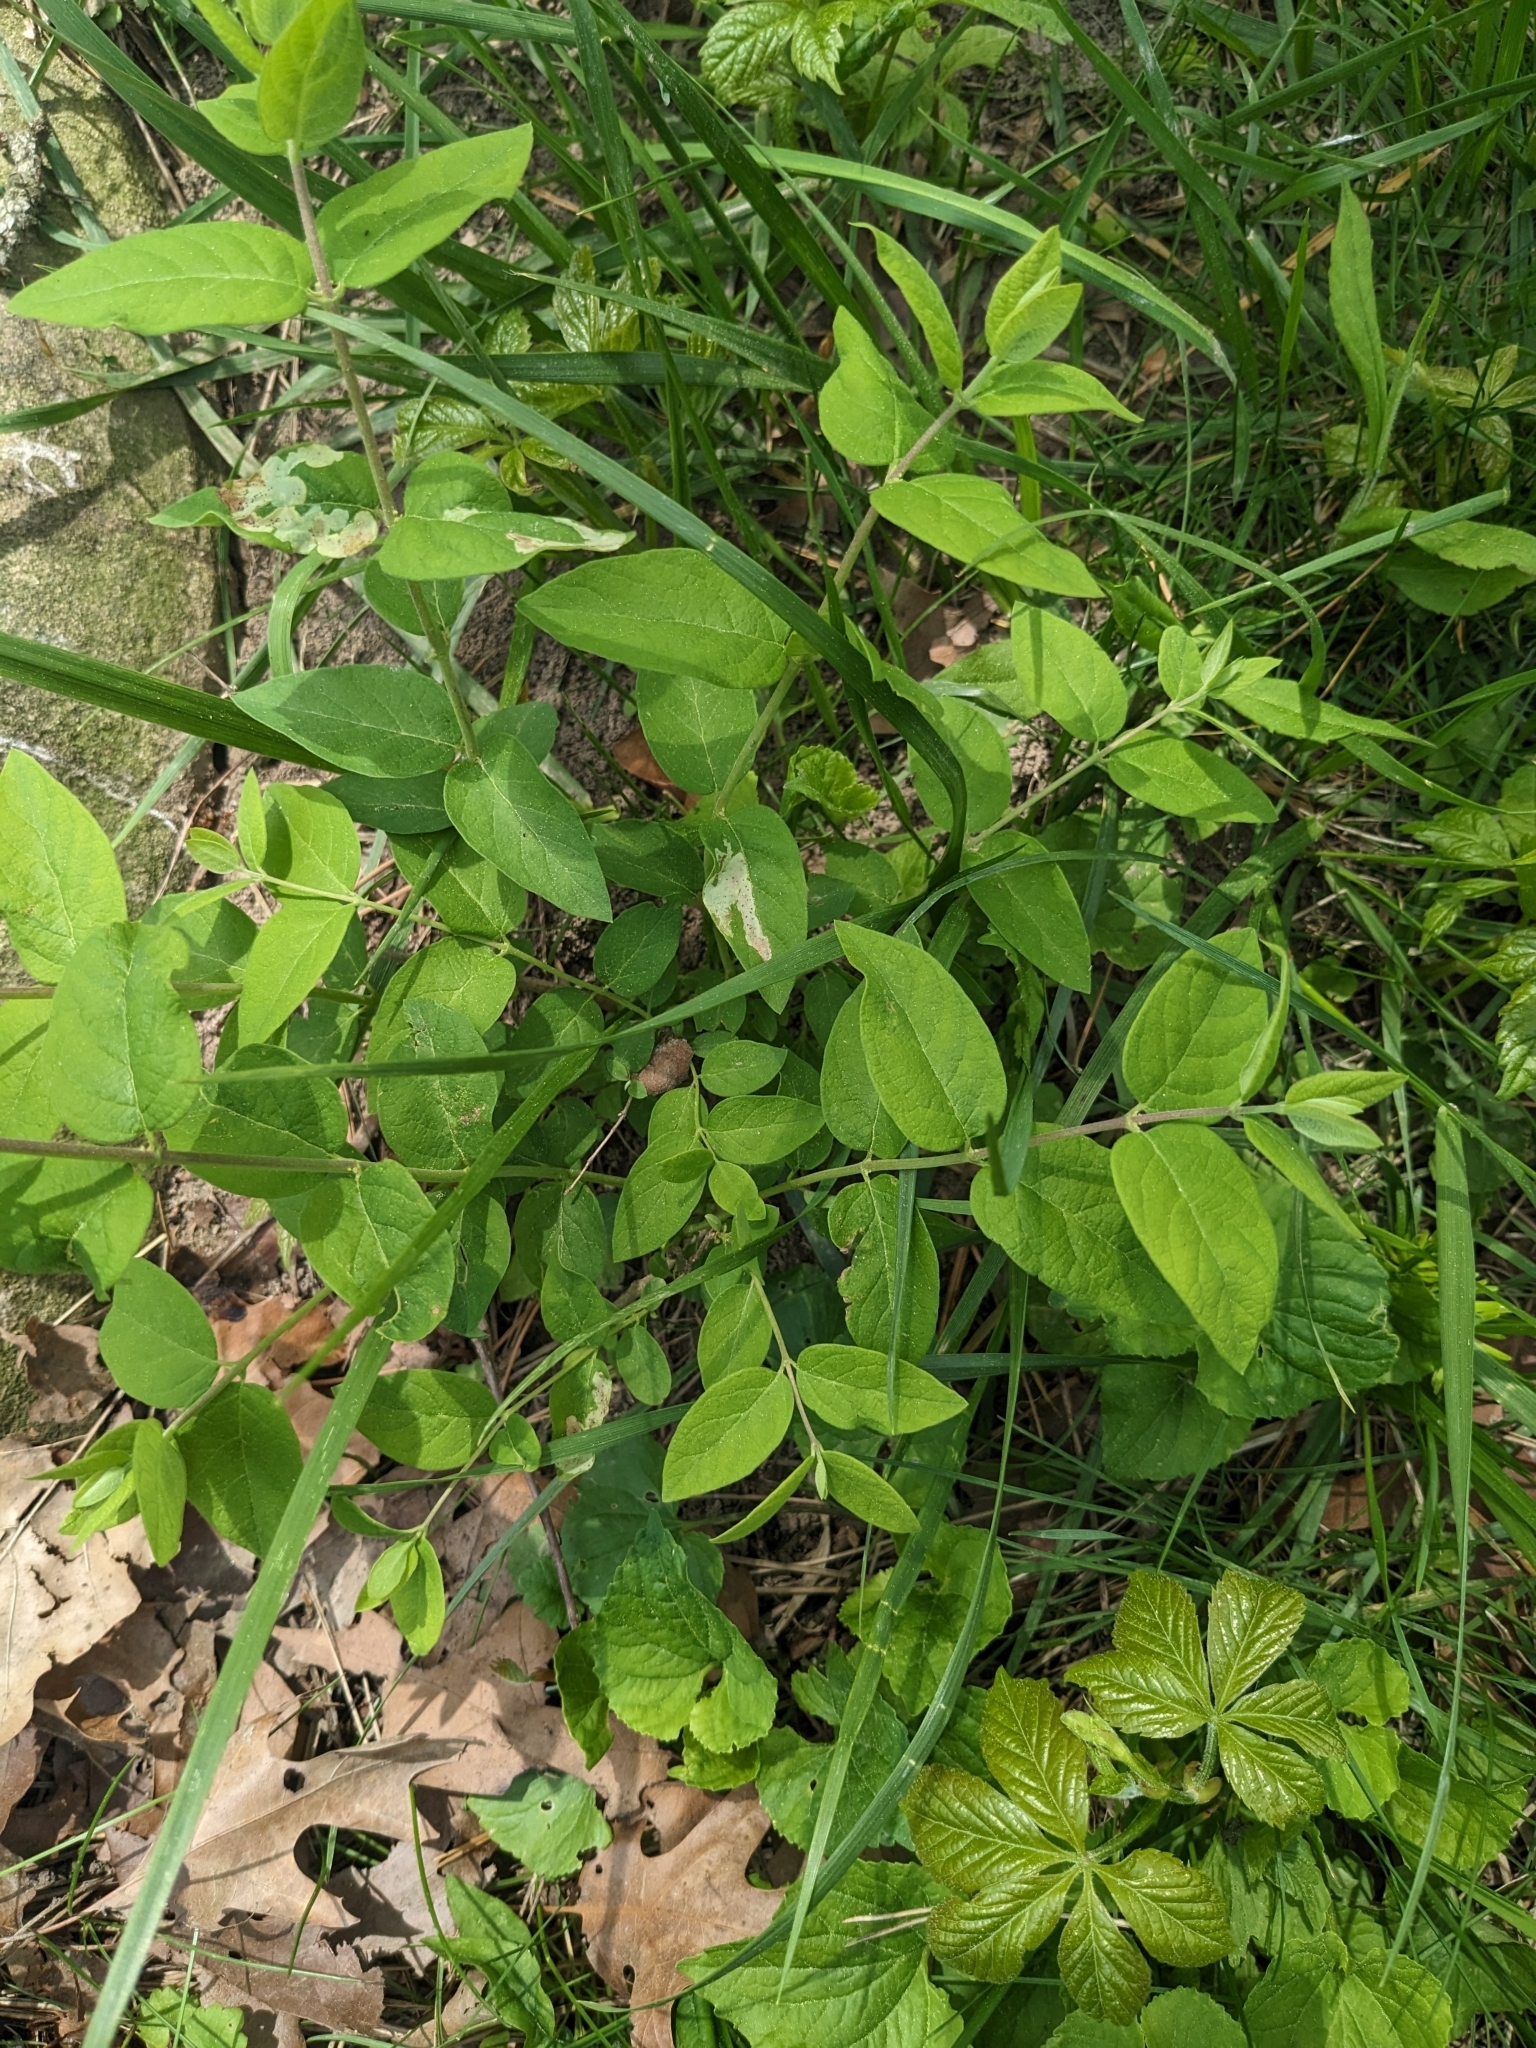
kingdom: Plantae
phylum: Tracheophyta
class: Magnoliopsida
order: Dipsacales
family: Caprifoliaceae
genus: Lonicera
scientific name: Lonicera
